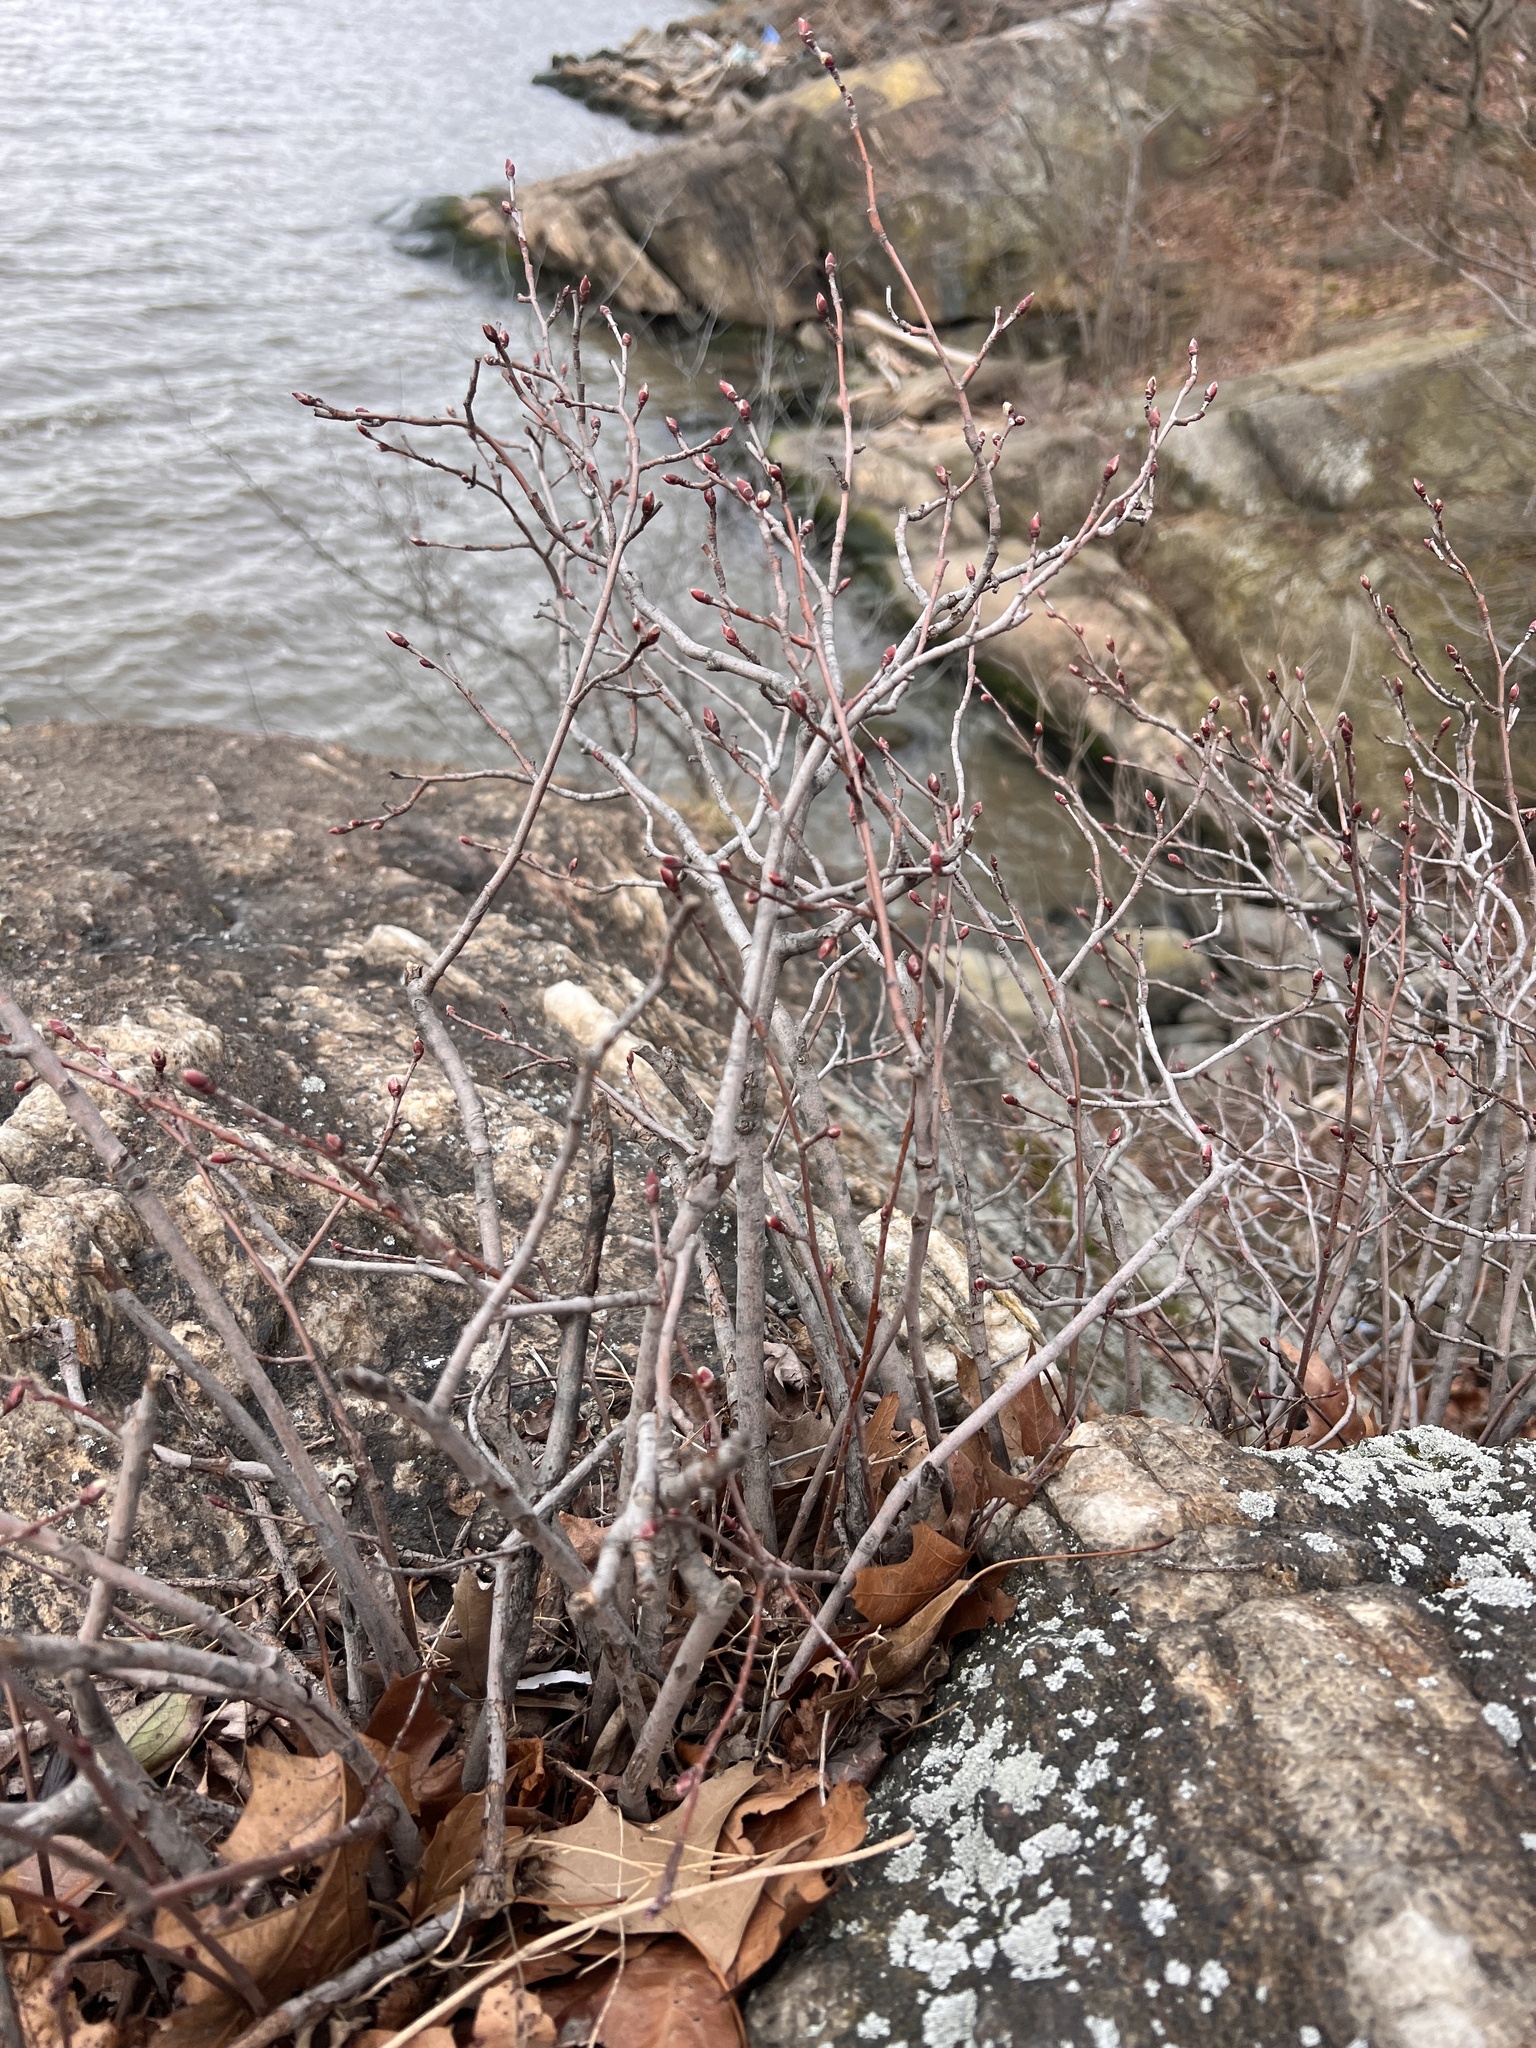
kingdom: Plantae
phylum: Tracheophyta
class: Magnoliopsida
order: Rosales
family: Rosaceae
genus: Amelanchier
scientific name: Amelanchier nantucketensis
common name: Nantucket shadbush
